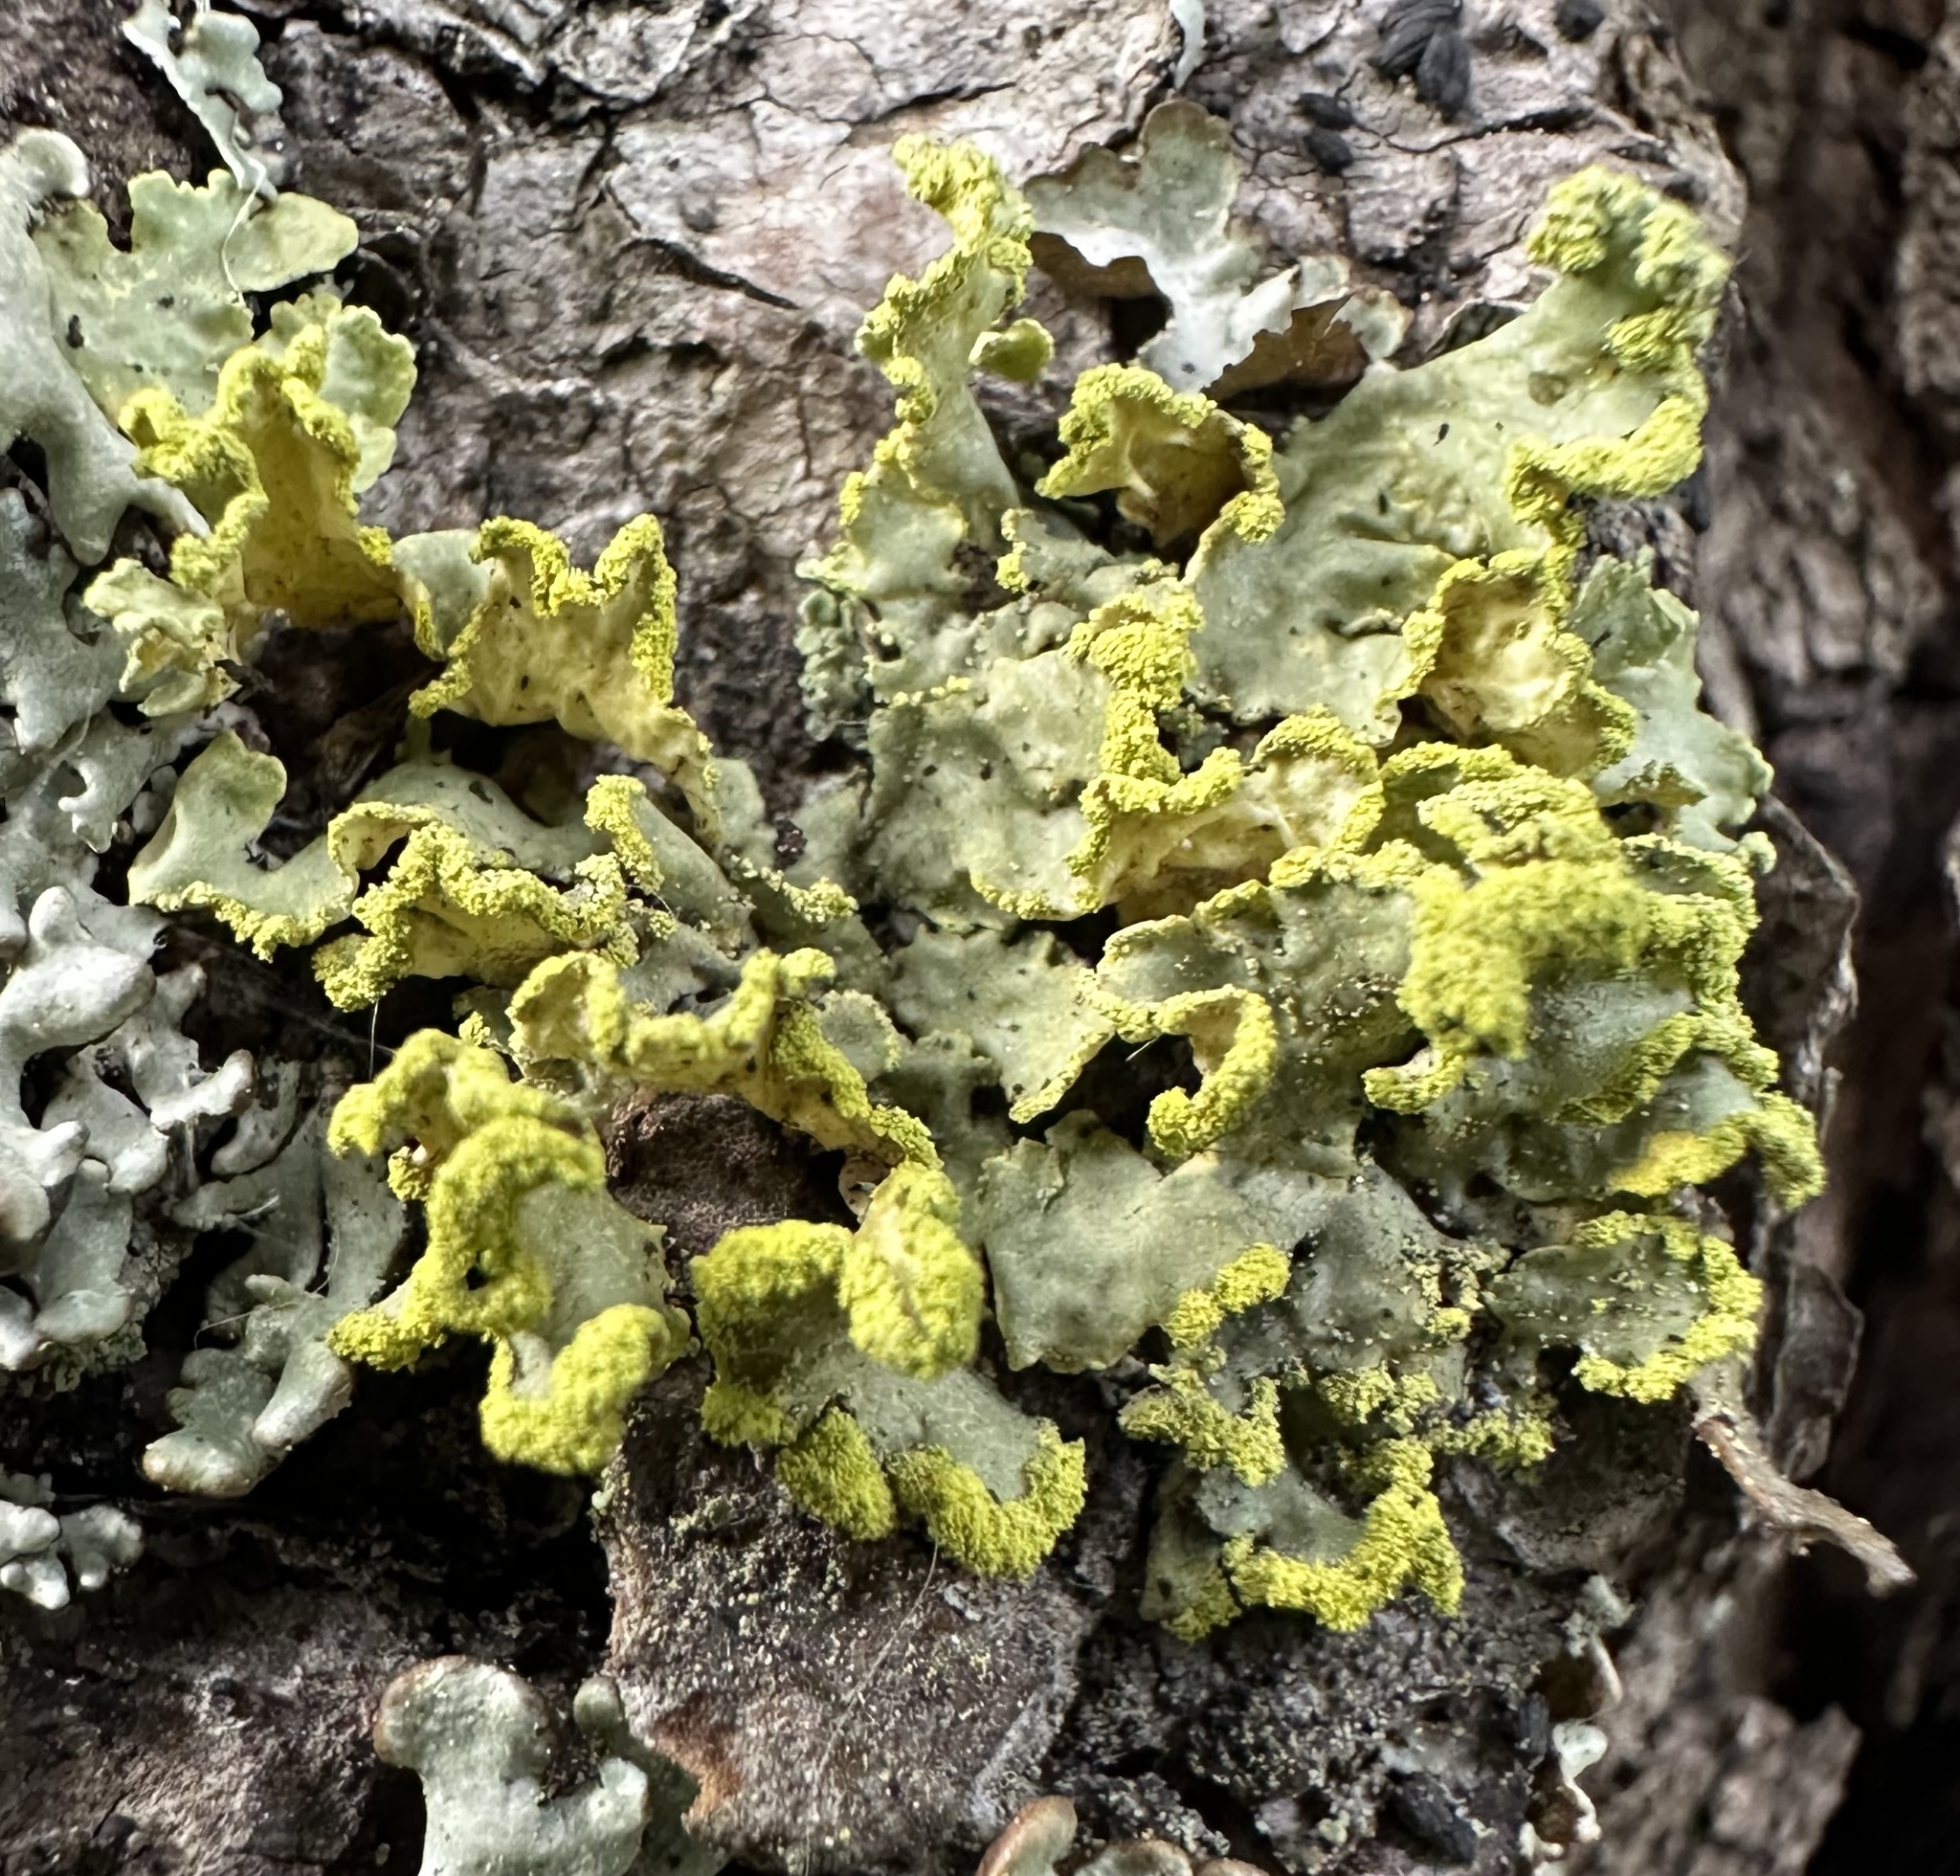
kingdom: Fungi
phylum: Ascomycota
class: Lecanoromycetes
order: Lecanorales
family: Parmeliaceae
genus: Vulpicida
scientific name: Vulpicida pinastri
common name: Powdered sunshine lichen
